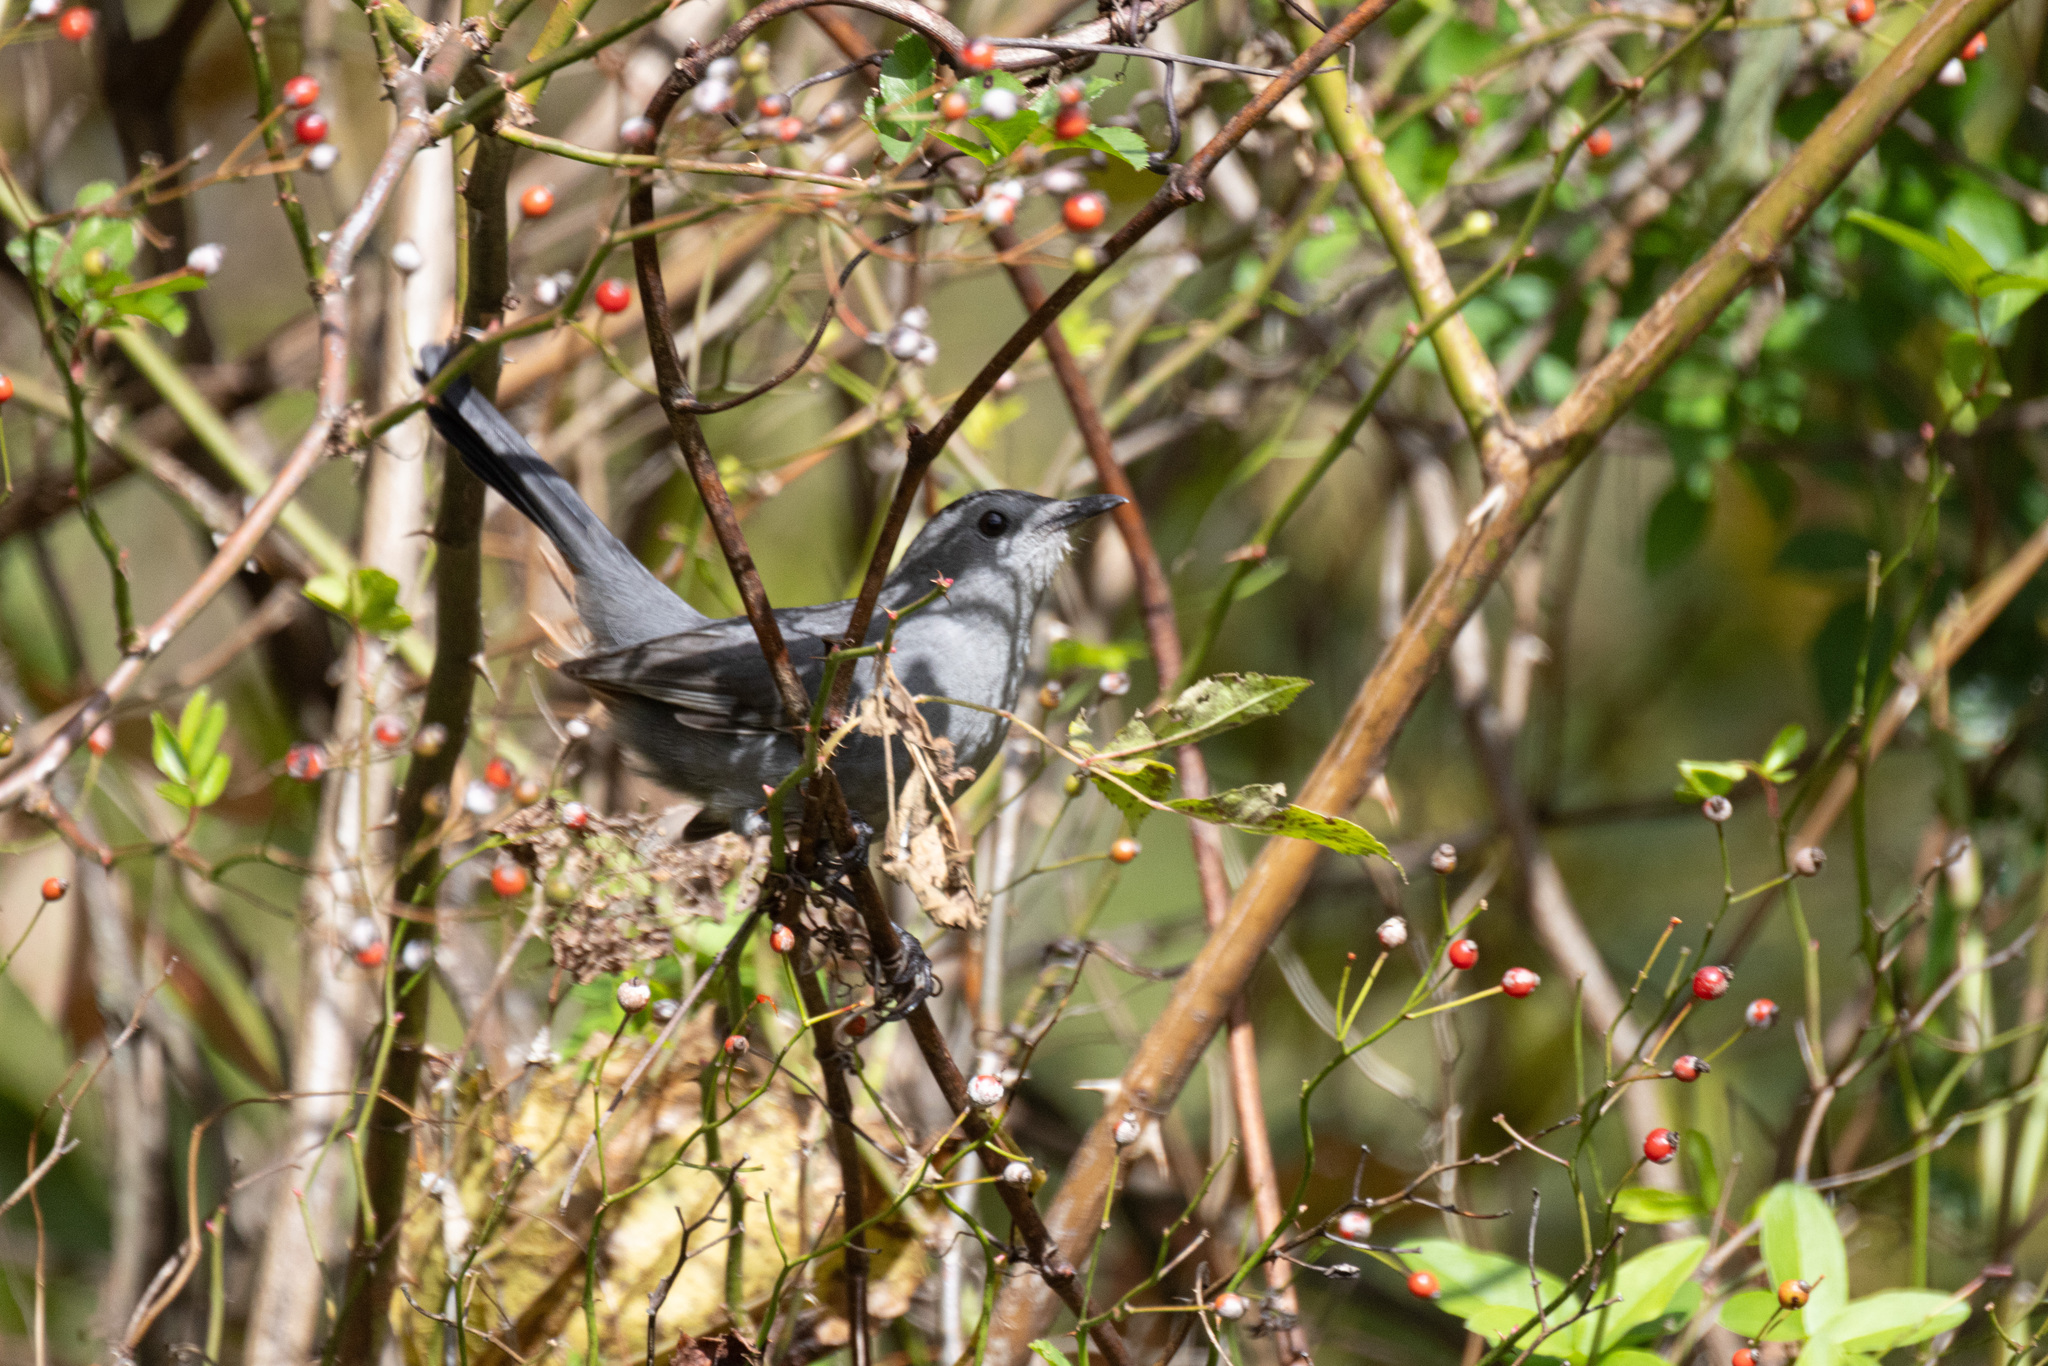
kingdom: Animalia
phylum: Chordata
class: Aves
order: Passeriformes
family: Mimidae
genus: Dumetella
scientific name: Dumetella carolinensis
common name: Gray catbird
